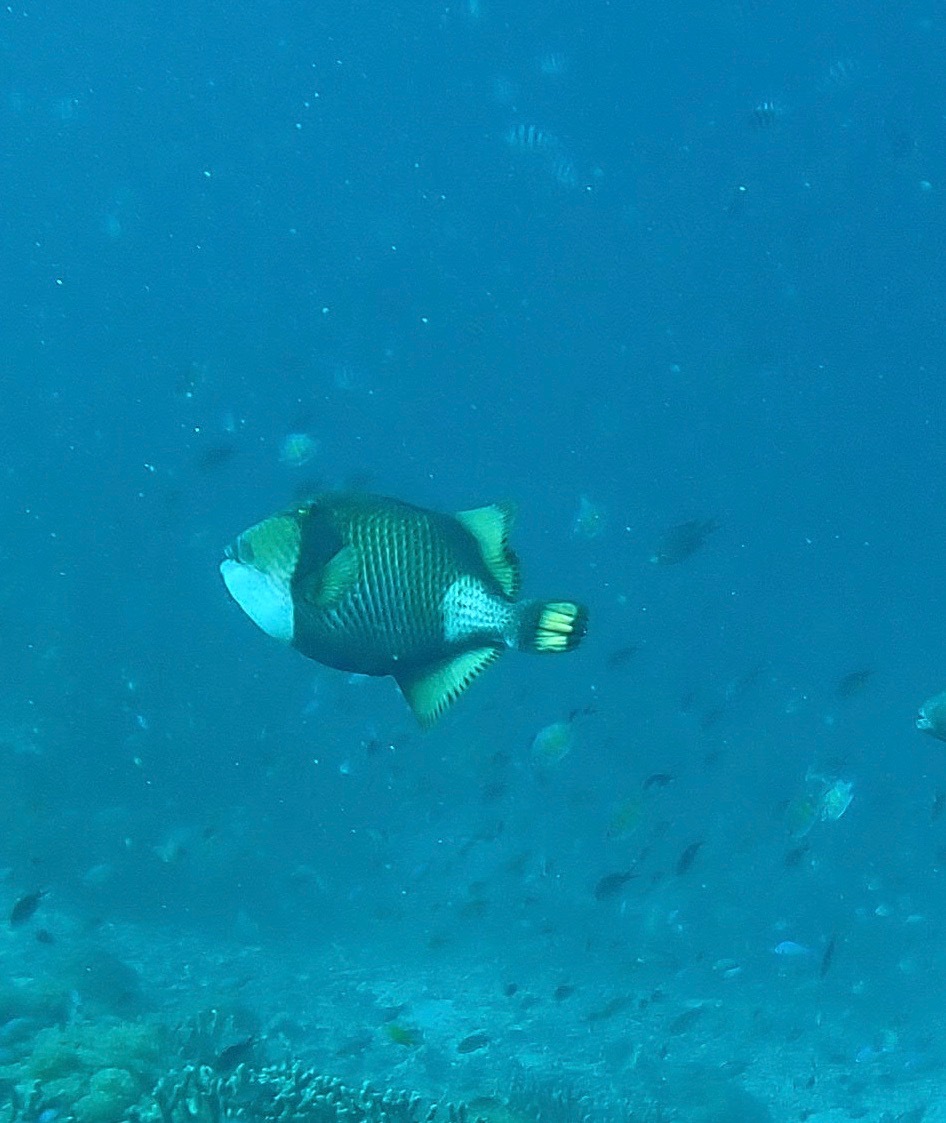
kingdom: Animalia
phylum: Chordata
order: Tetraodontiformes
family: Balistidae
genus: Balistoides
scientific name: Balistoides viridescens
